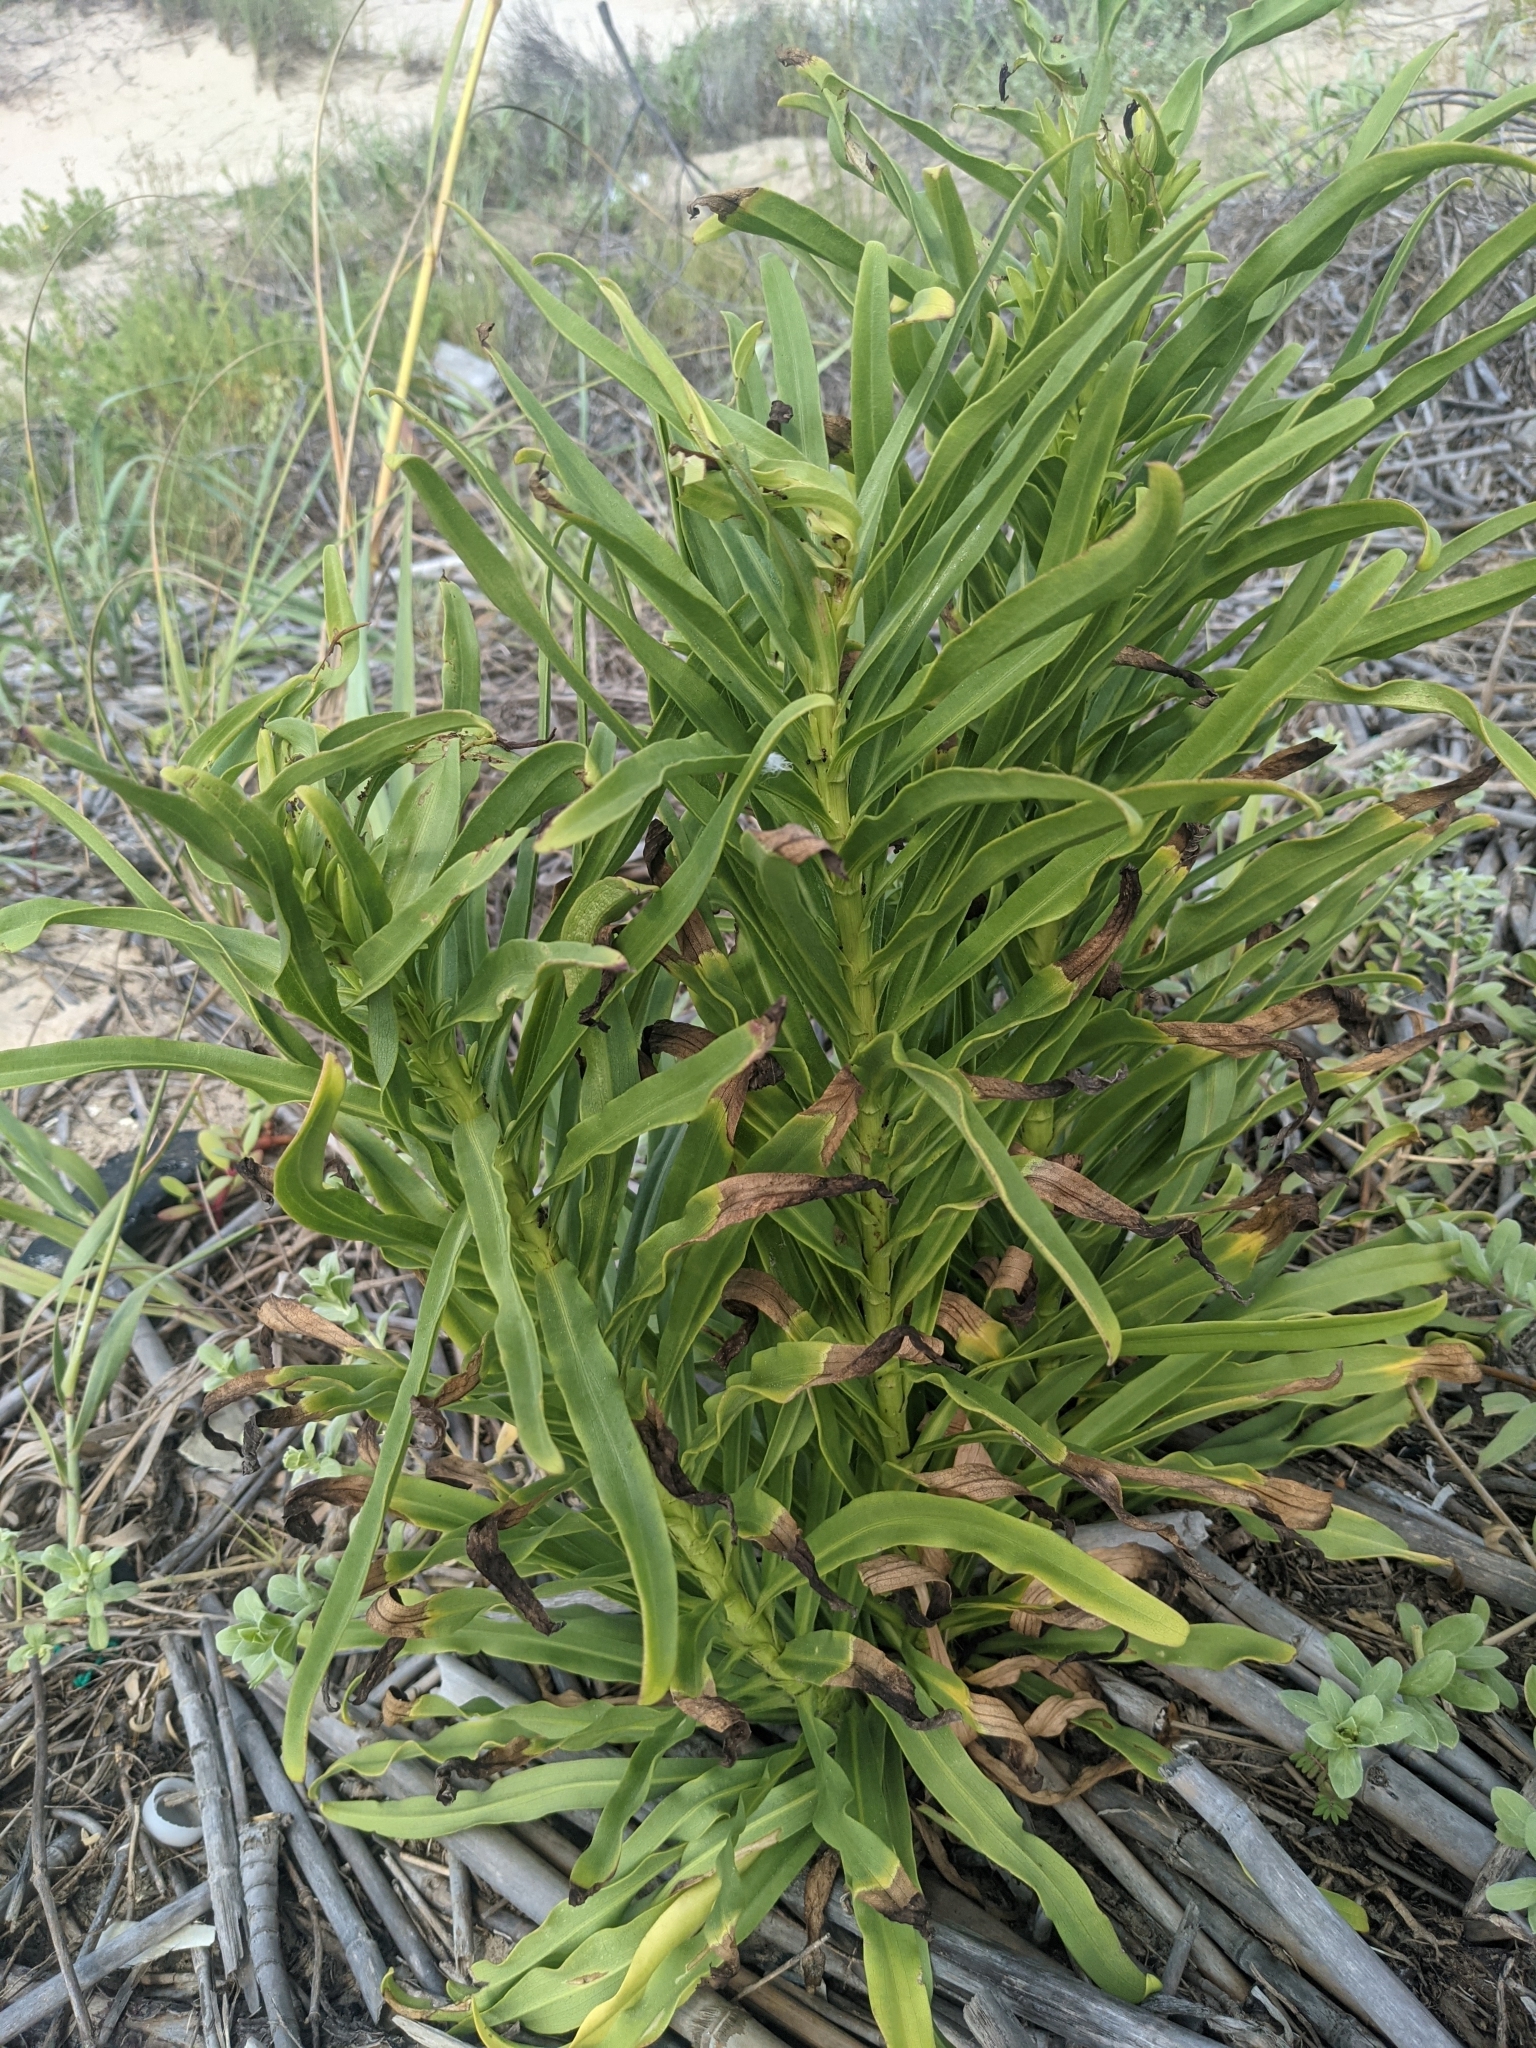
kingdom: Plantae
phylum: Tracheophyta
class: Magnoliopsida
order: Asterales
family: Asteraceae
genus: Solidago
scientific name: Solidago mexicana
